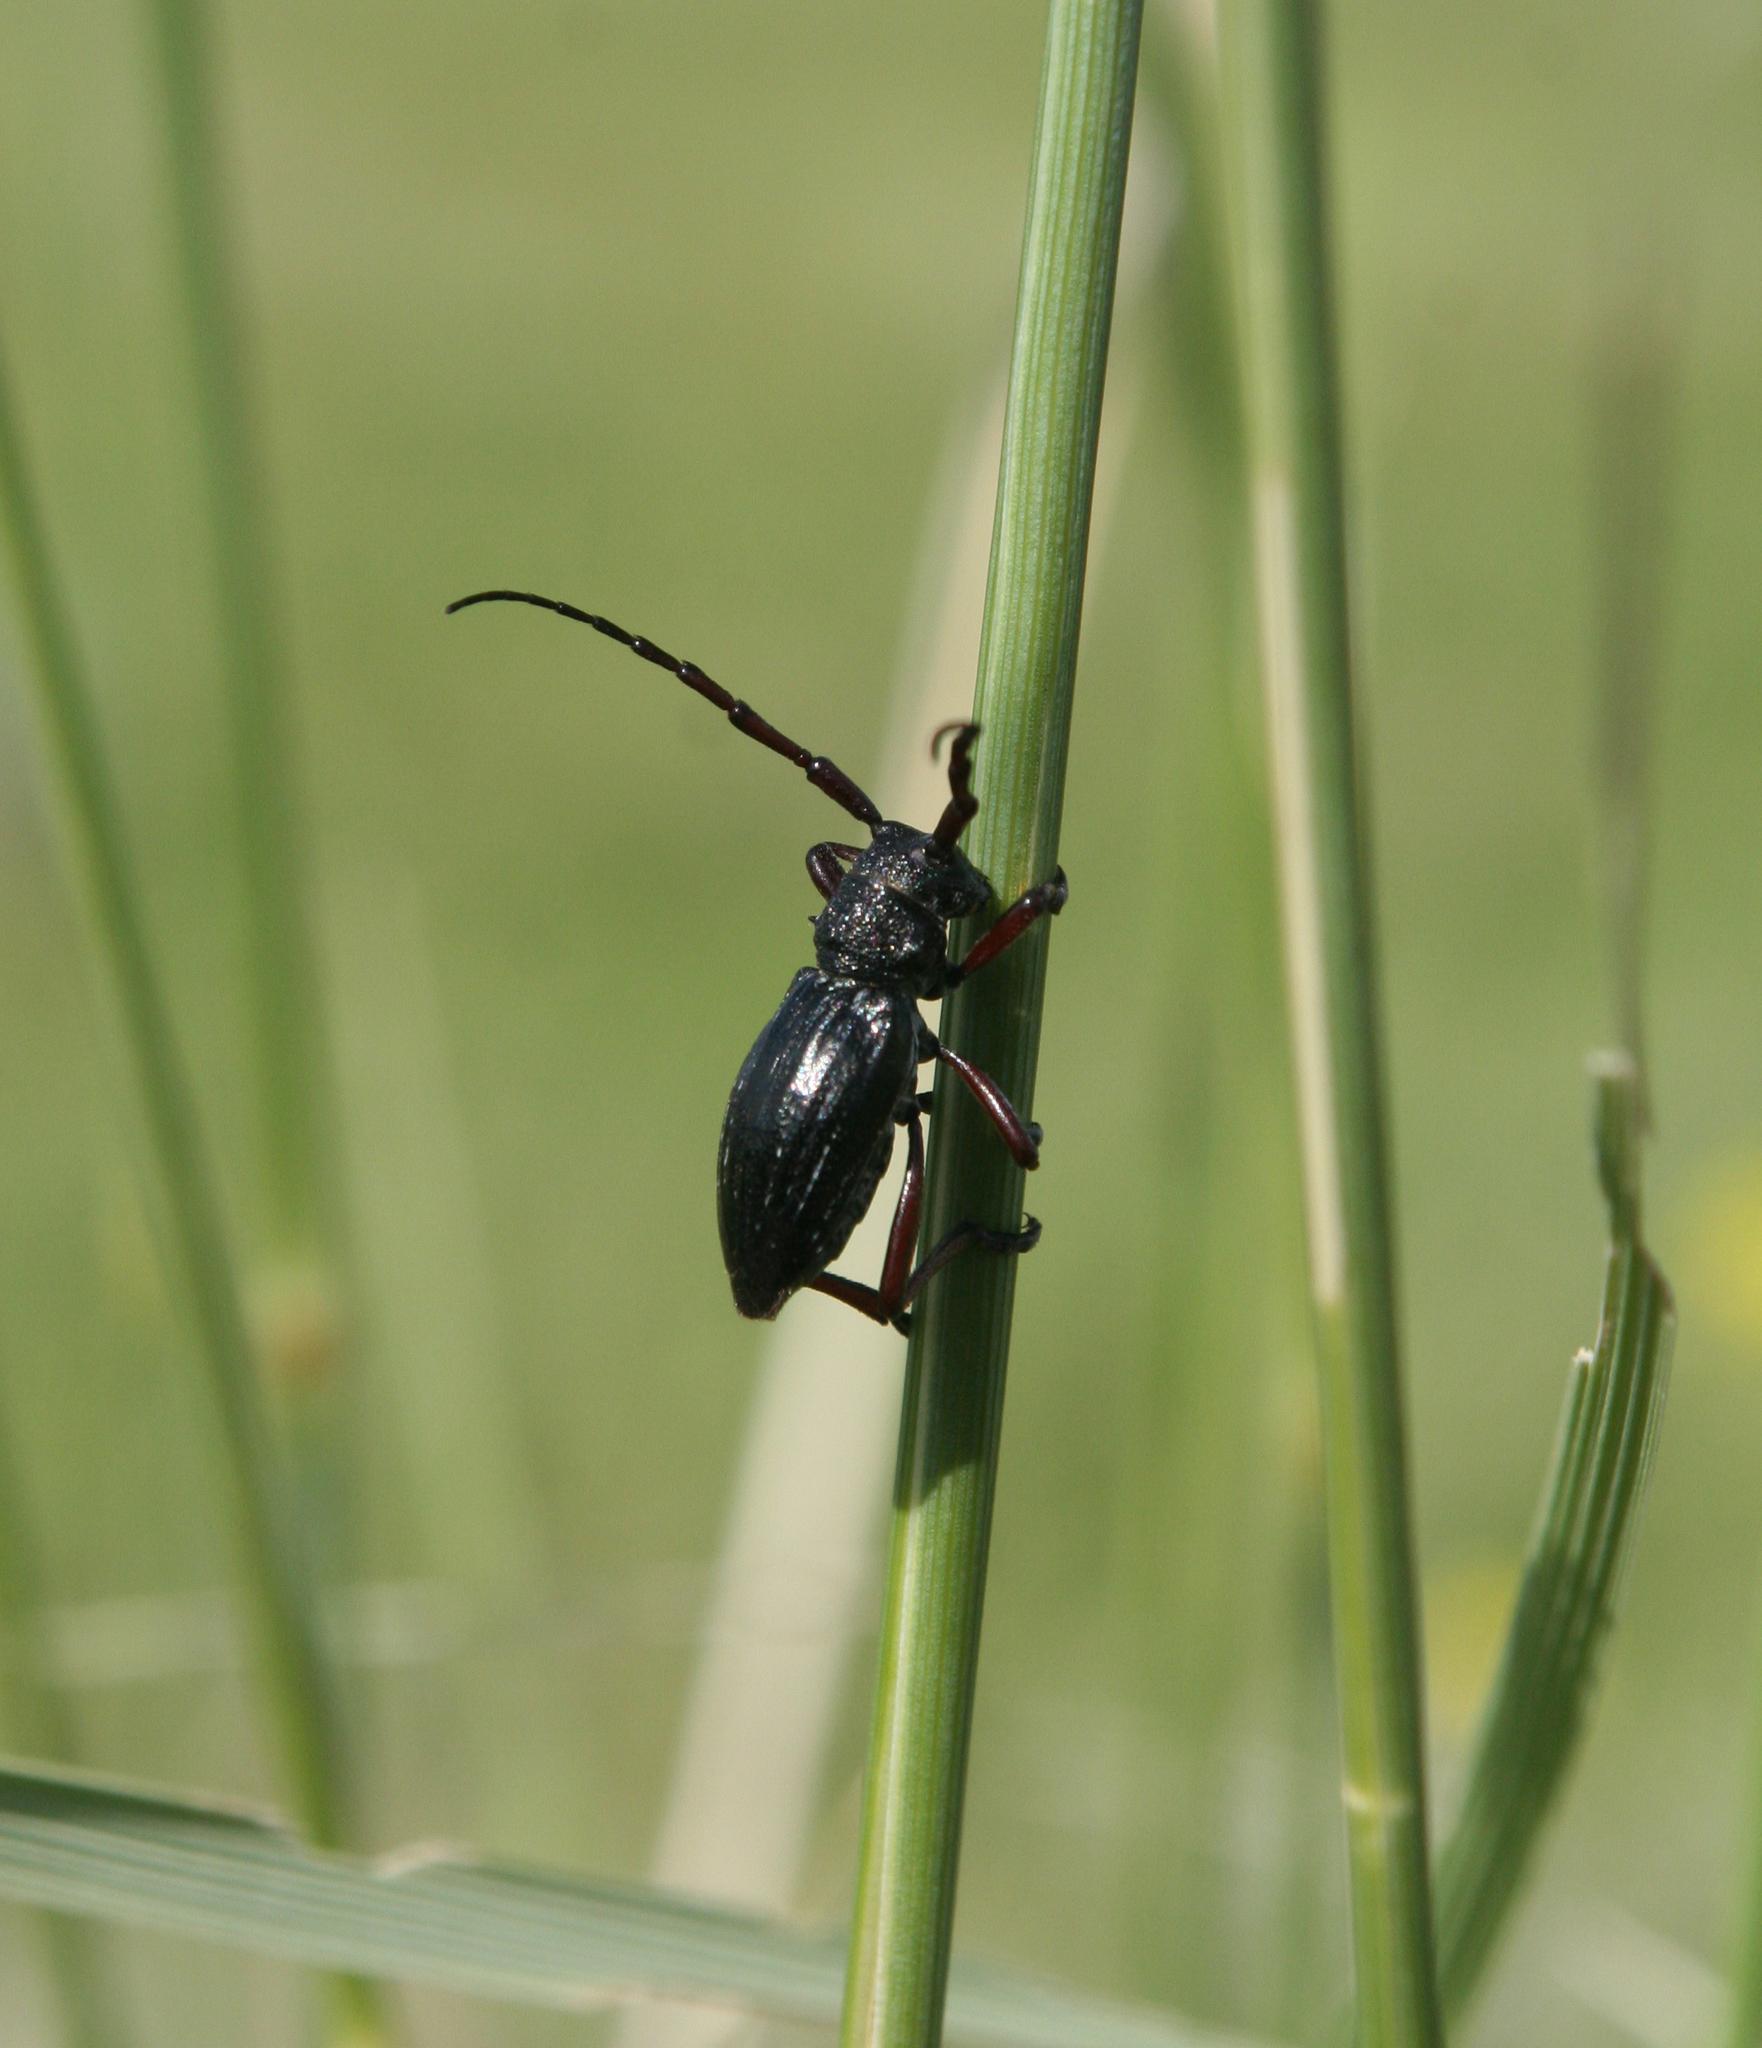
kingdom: Animalia
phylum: Arthropoda
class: Insecta
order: Coleoptera
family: Cerambycidae
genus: Eodorcadion
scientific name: Eodorcadion carinatum
